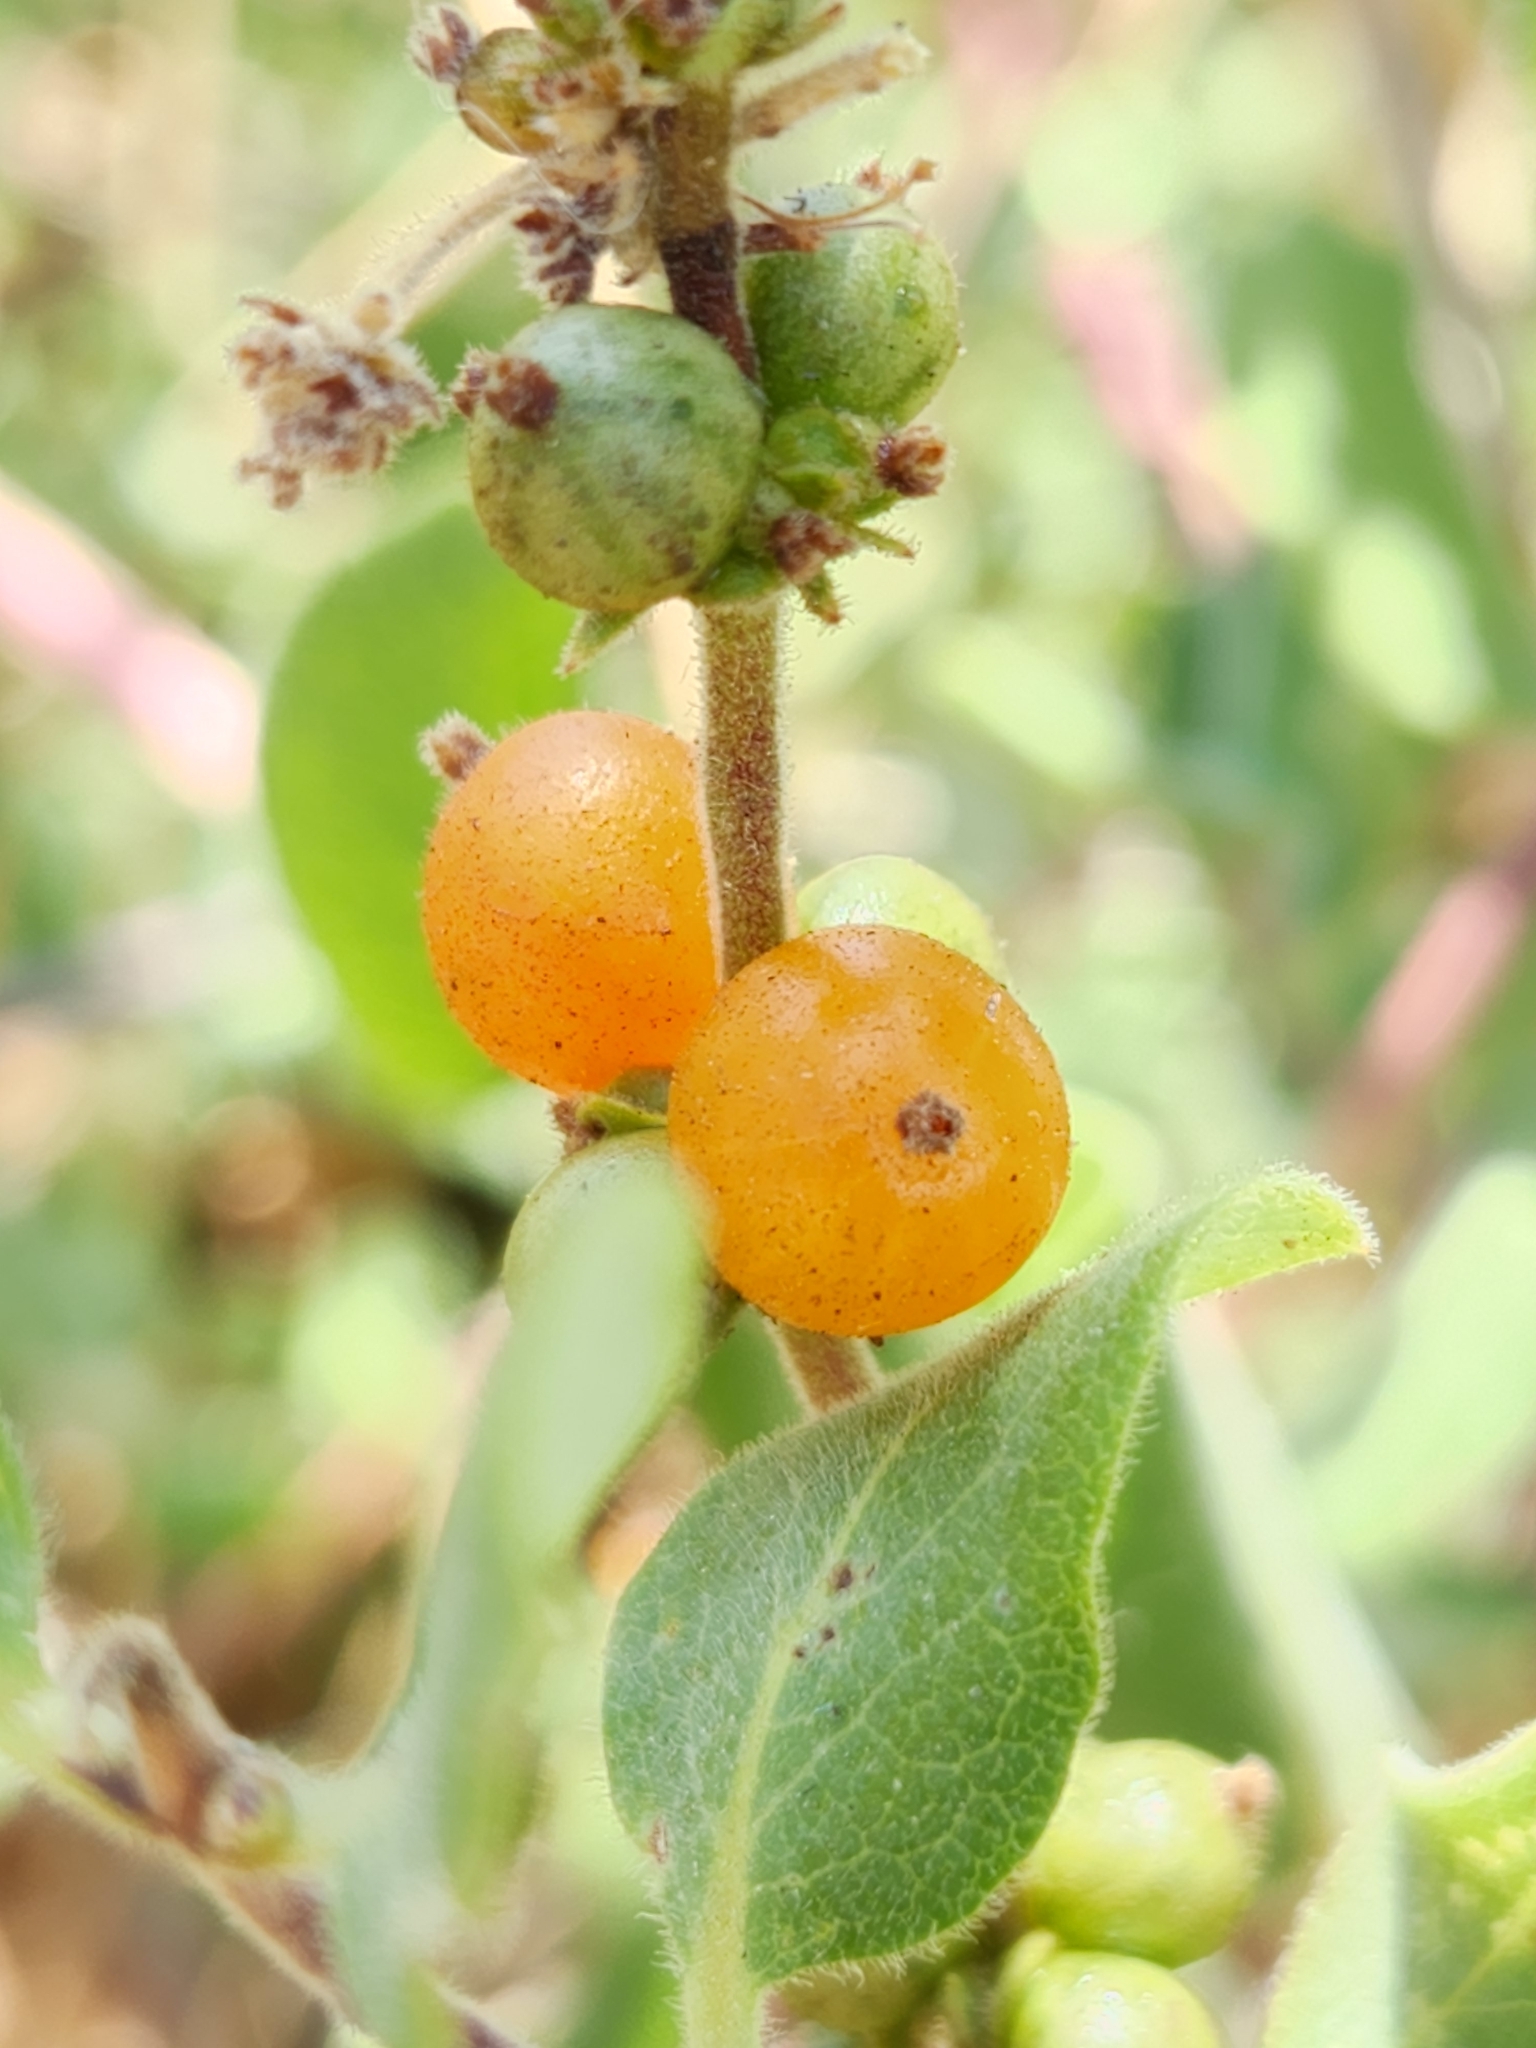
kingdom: Plantae
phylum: Tracheophyta
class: Magnoliopsida
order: Dipsacales
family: Caprifoliaceae
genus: Lonicera
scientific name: Lonicera subspicata
